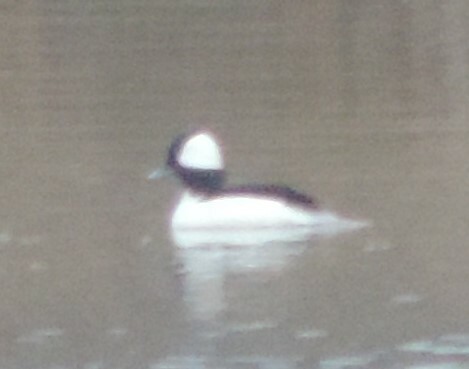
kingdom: Animalia
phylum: Chordata
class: Aves
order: Anseriformes
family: Anatidae
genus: Bucephala
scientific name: Bucephala albeola
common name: Bufflehead
